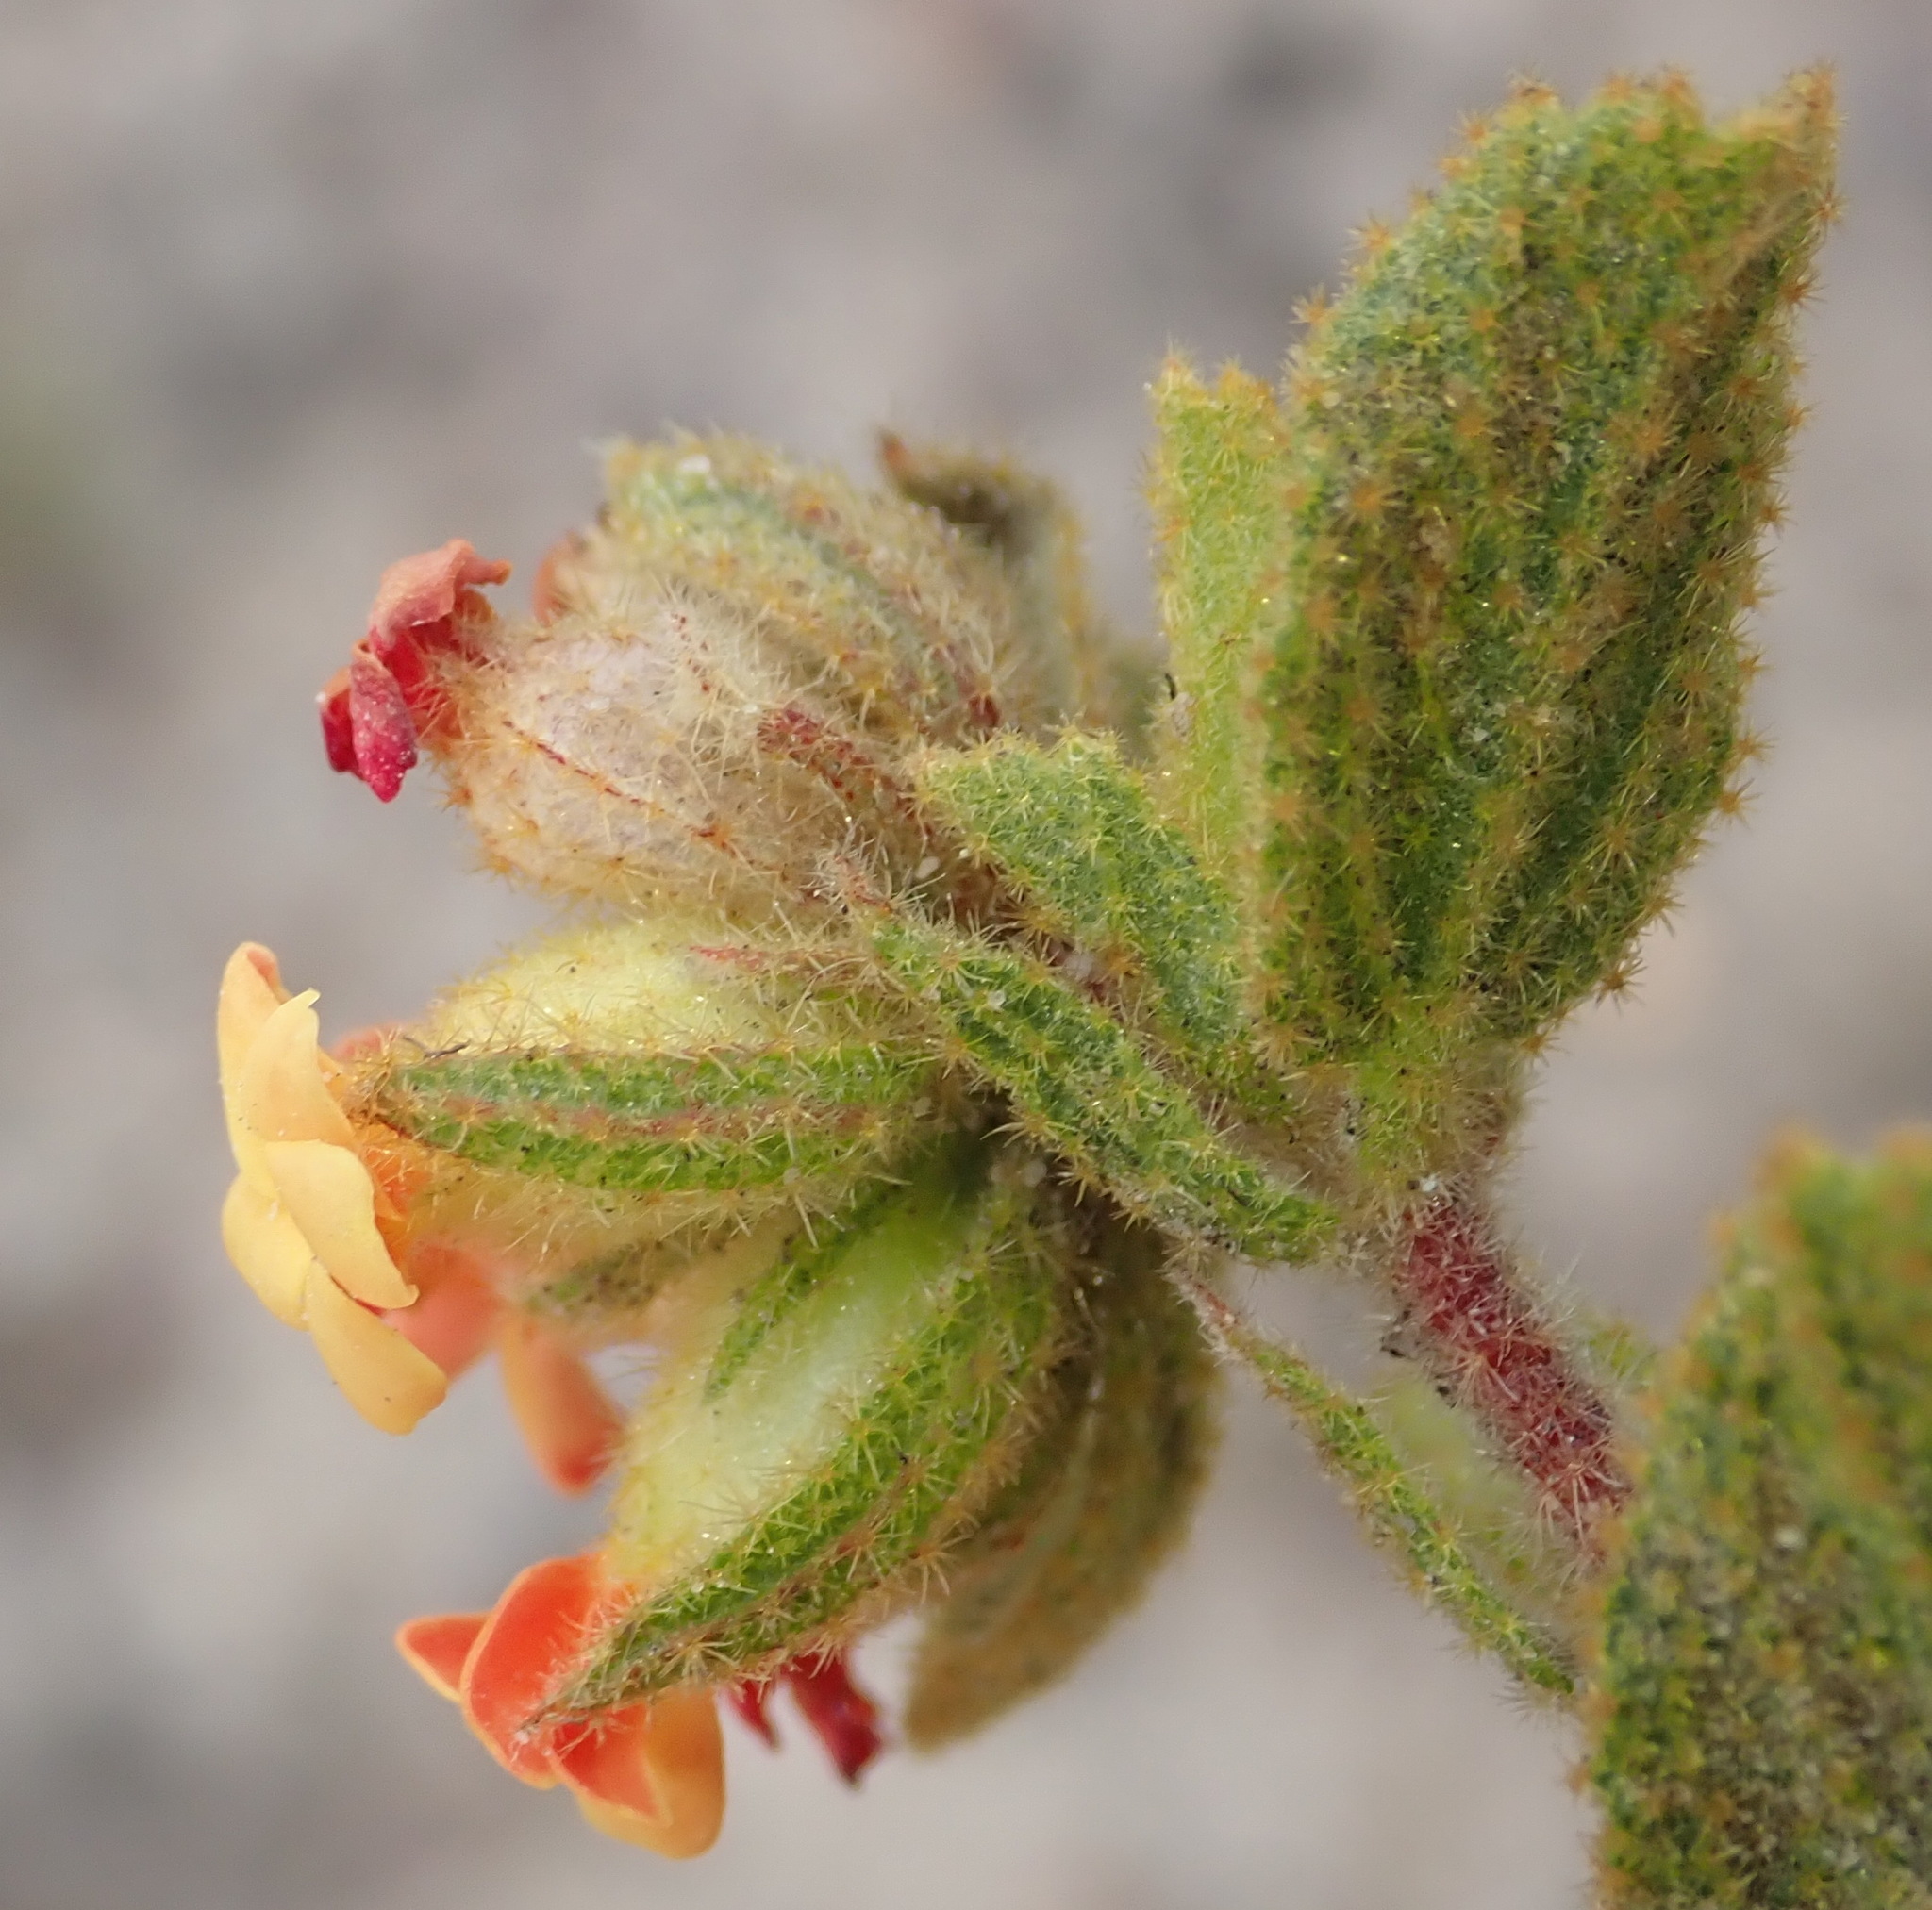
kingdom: Plantae
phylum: Tracheophyta
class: Magnoliopsida
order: Malvales
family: Malvaceae
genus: Hermannia
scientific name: Hermannia salviifolia
